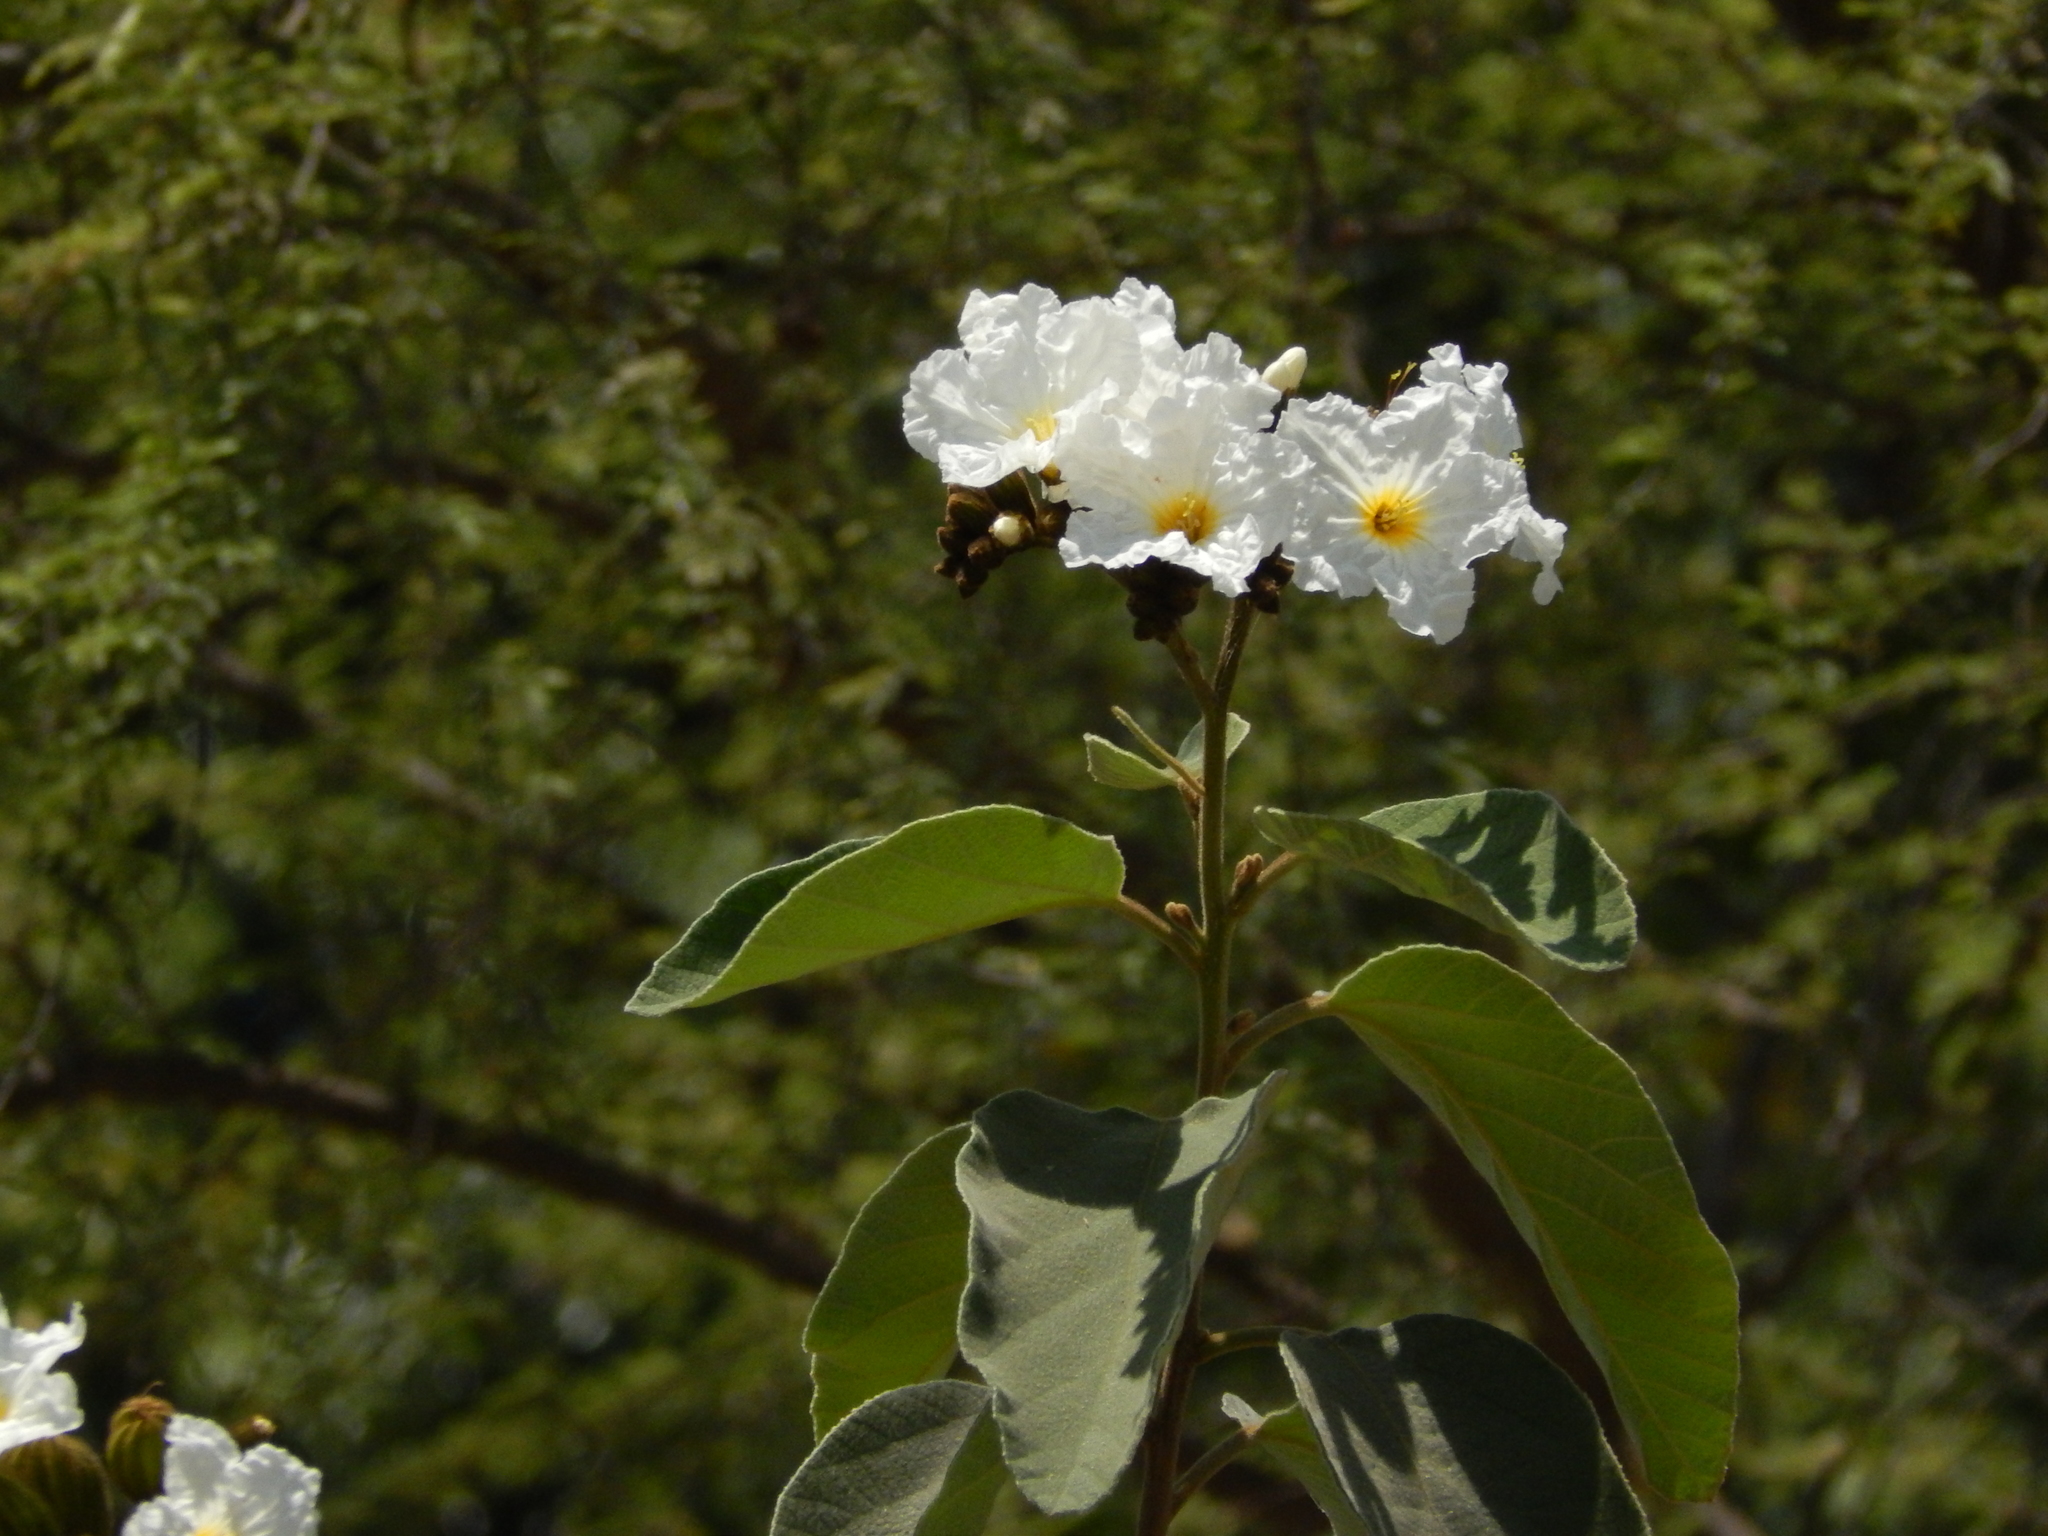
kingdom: Plantae
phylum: Tracheophyta
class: Magnoliopsida
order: Boraginales
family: Cordiaceae
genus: Cordia
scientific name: Cordia boissieri
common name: Mexican-olive
